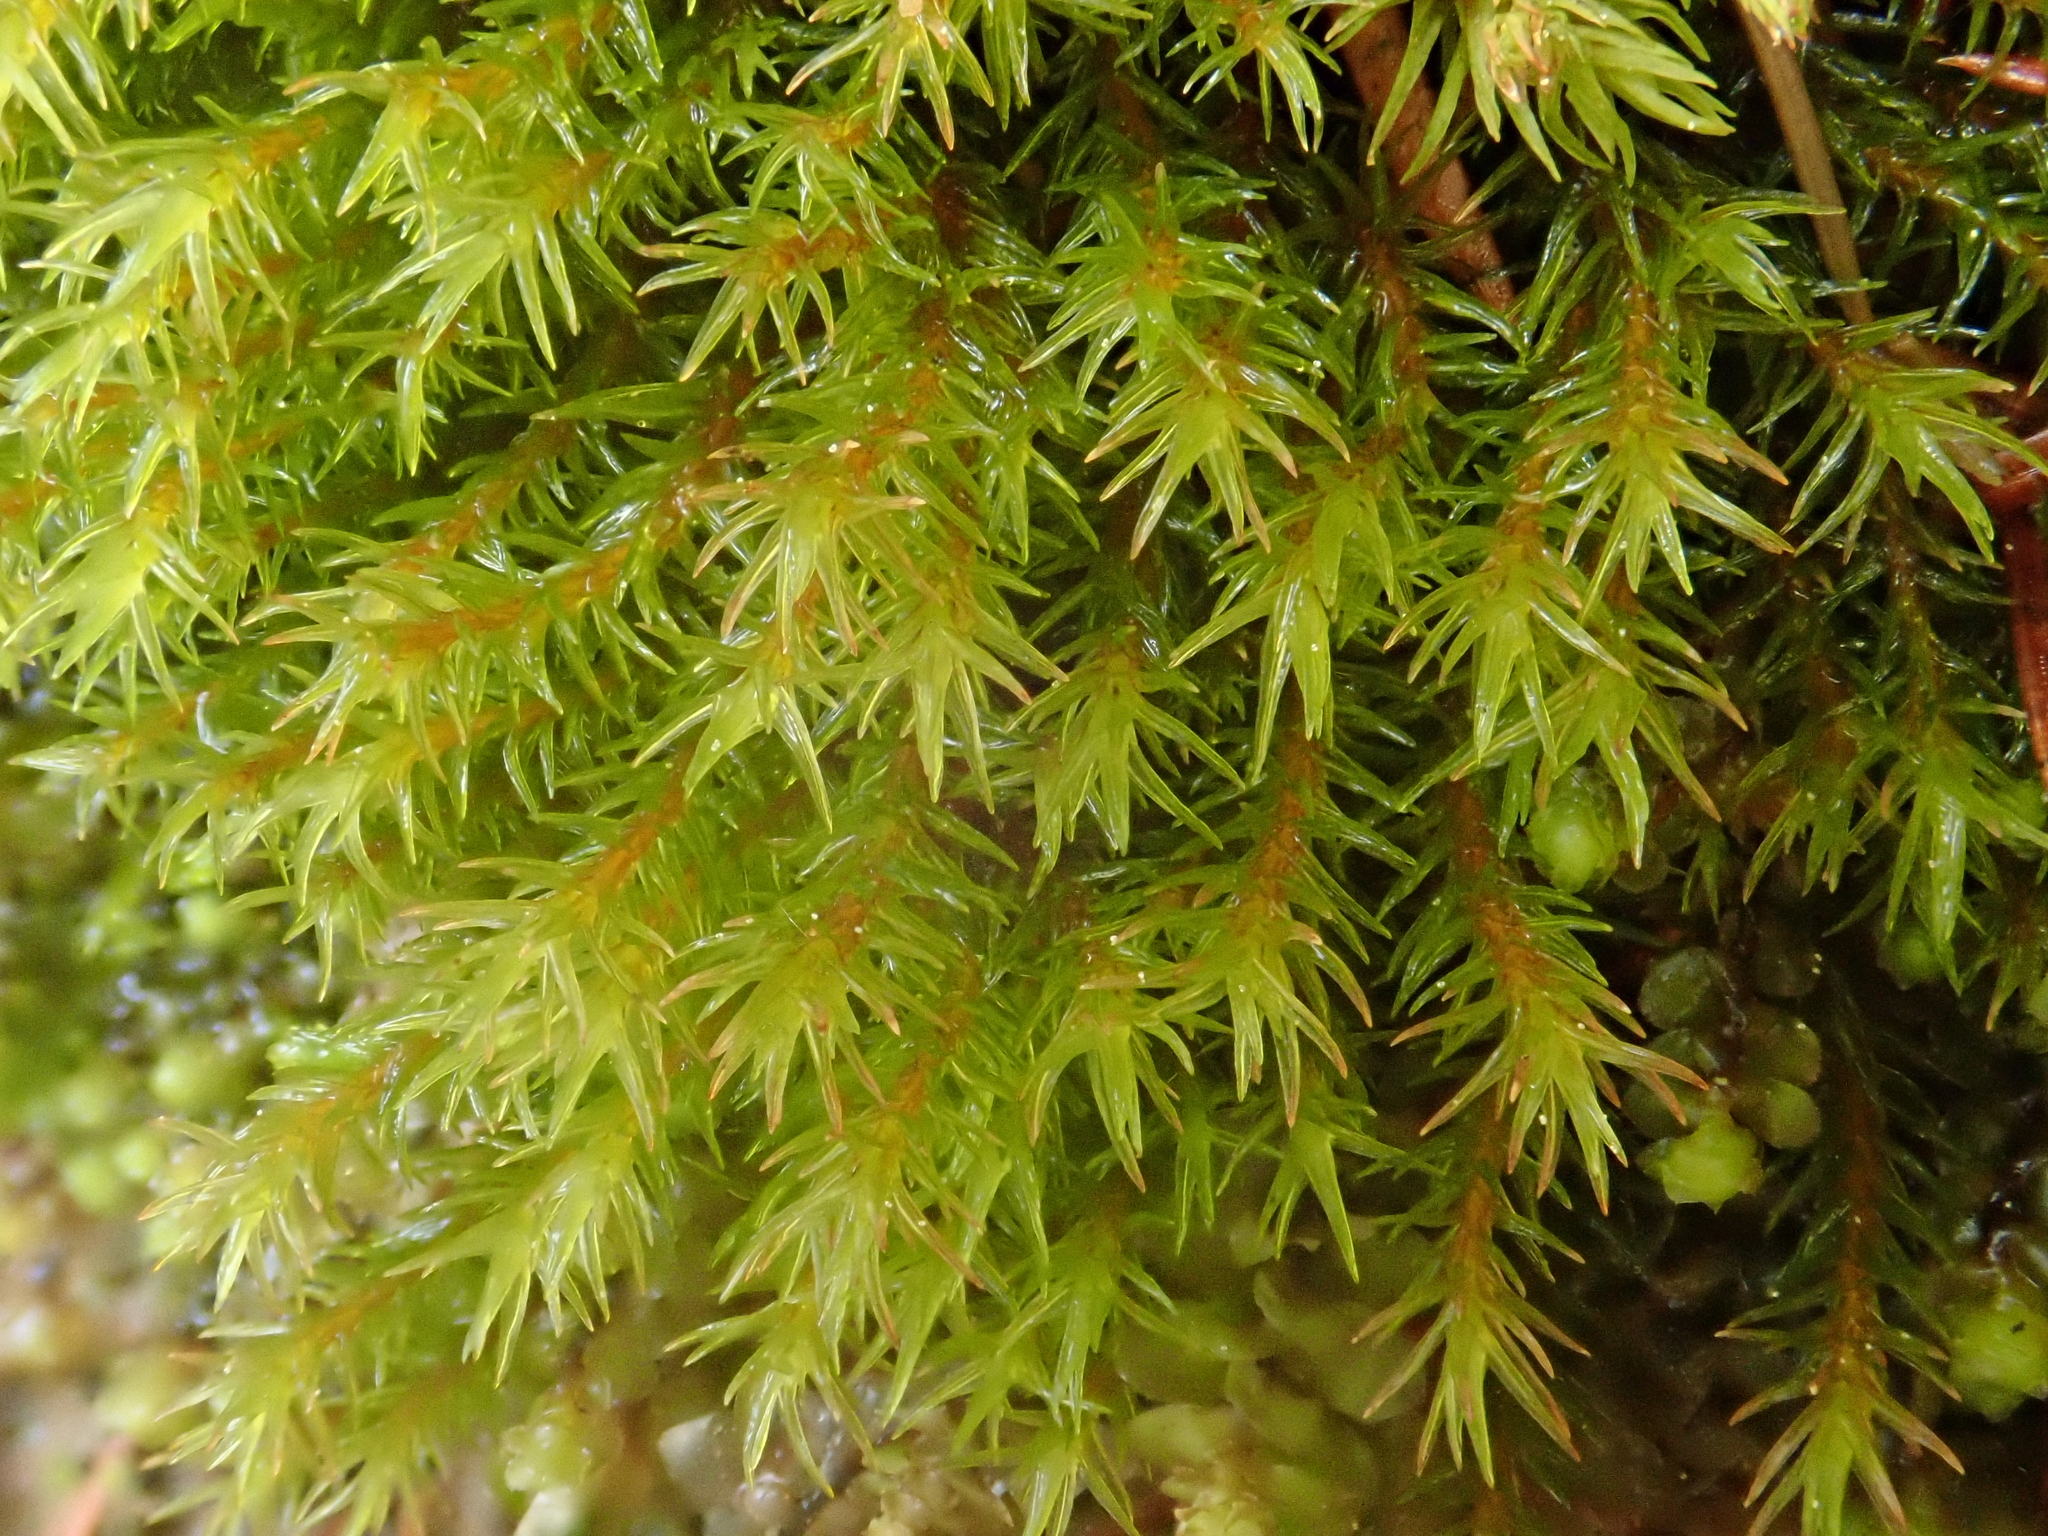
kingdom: Plantae
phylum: Bryophyta
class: Bryopsida
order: Grimmiales
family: Grimmiaceae
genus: Codriophorus
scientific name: Codriophorus aquaticus
